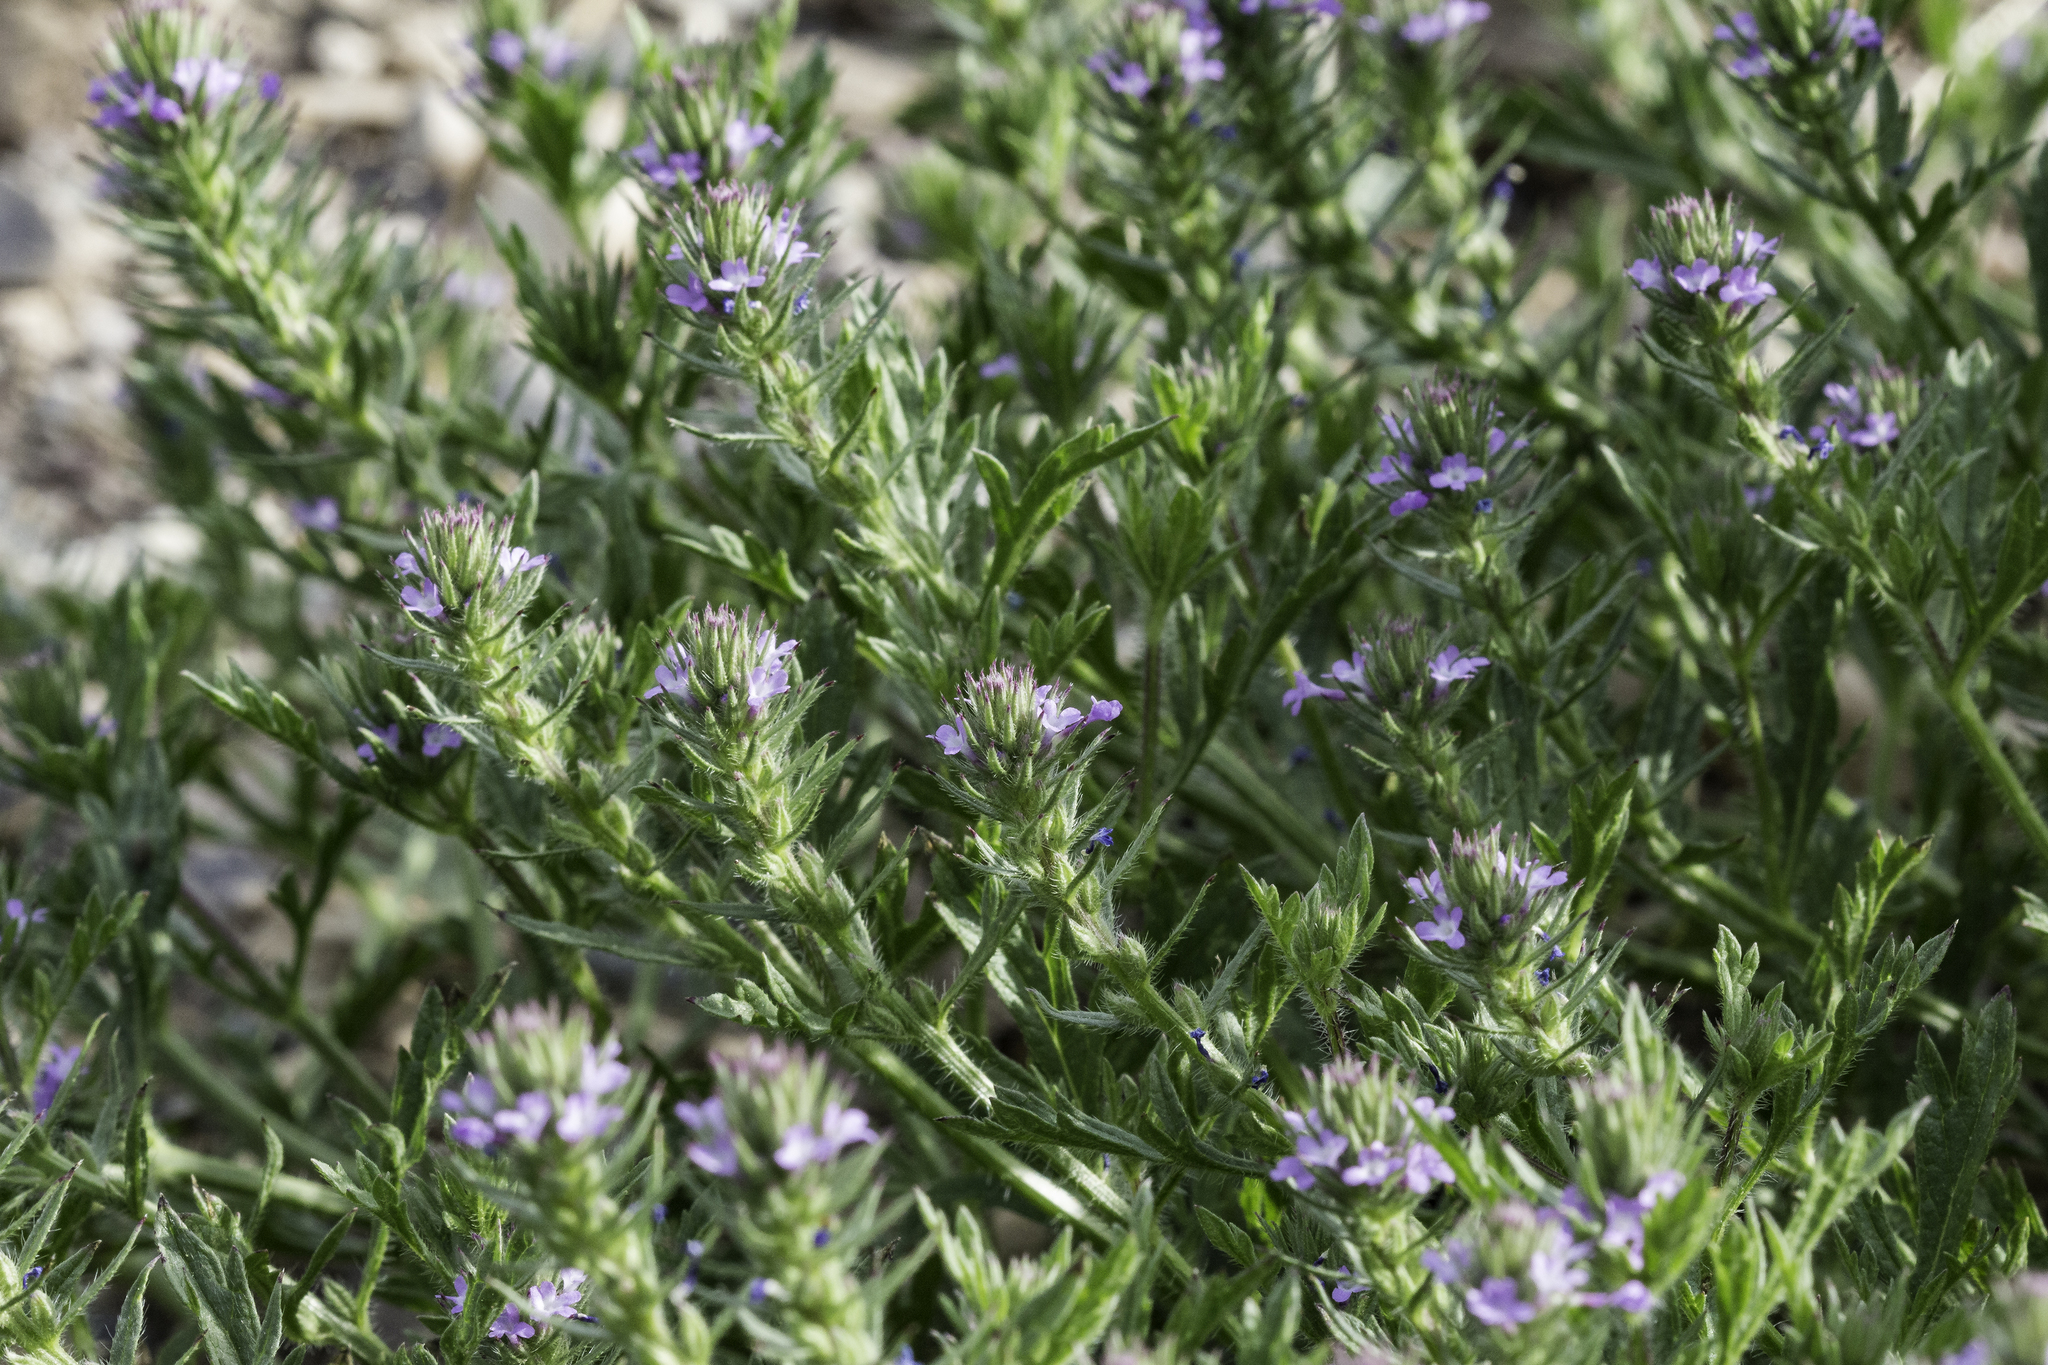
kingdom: Plantae
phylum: Tracheophyta
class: Magnoliopsida
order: Lamiales
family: Verbenaceae
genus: Verbena
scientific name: Verbena bracteata
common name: Bracted vervain
